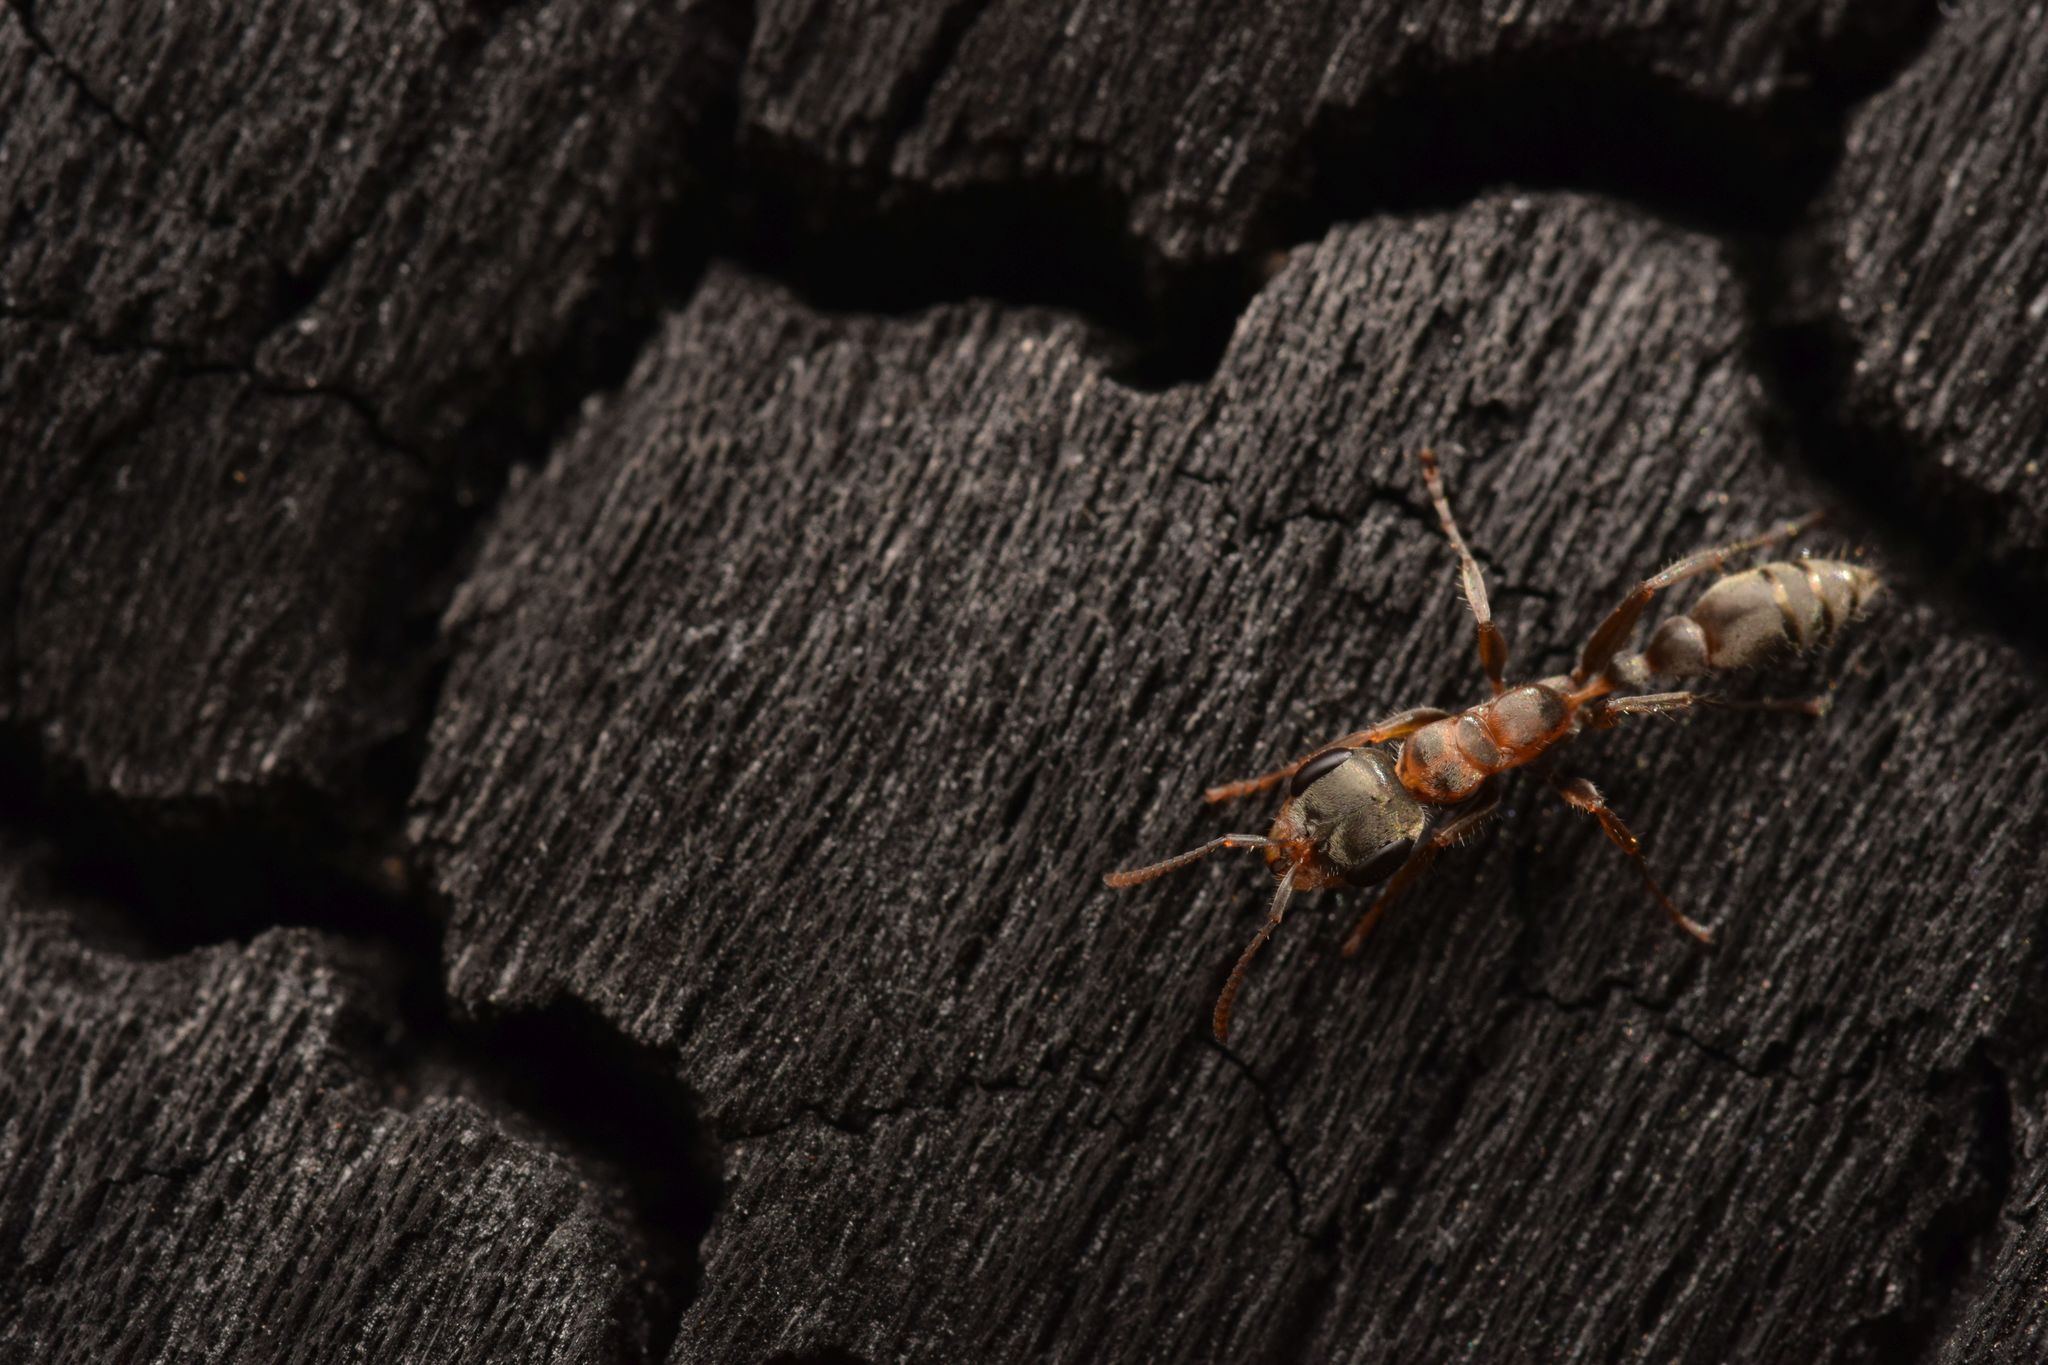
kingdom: Animalia
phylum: Arthropoda
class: Insecta
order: Hymenoptera
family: Formicidae
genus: Pseudomyrmex
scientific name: Pseudomyrmex gracilis
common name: Graceful twig ant
